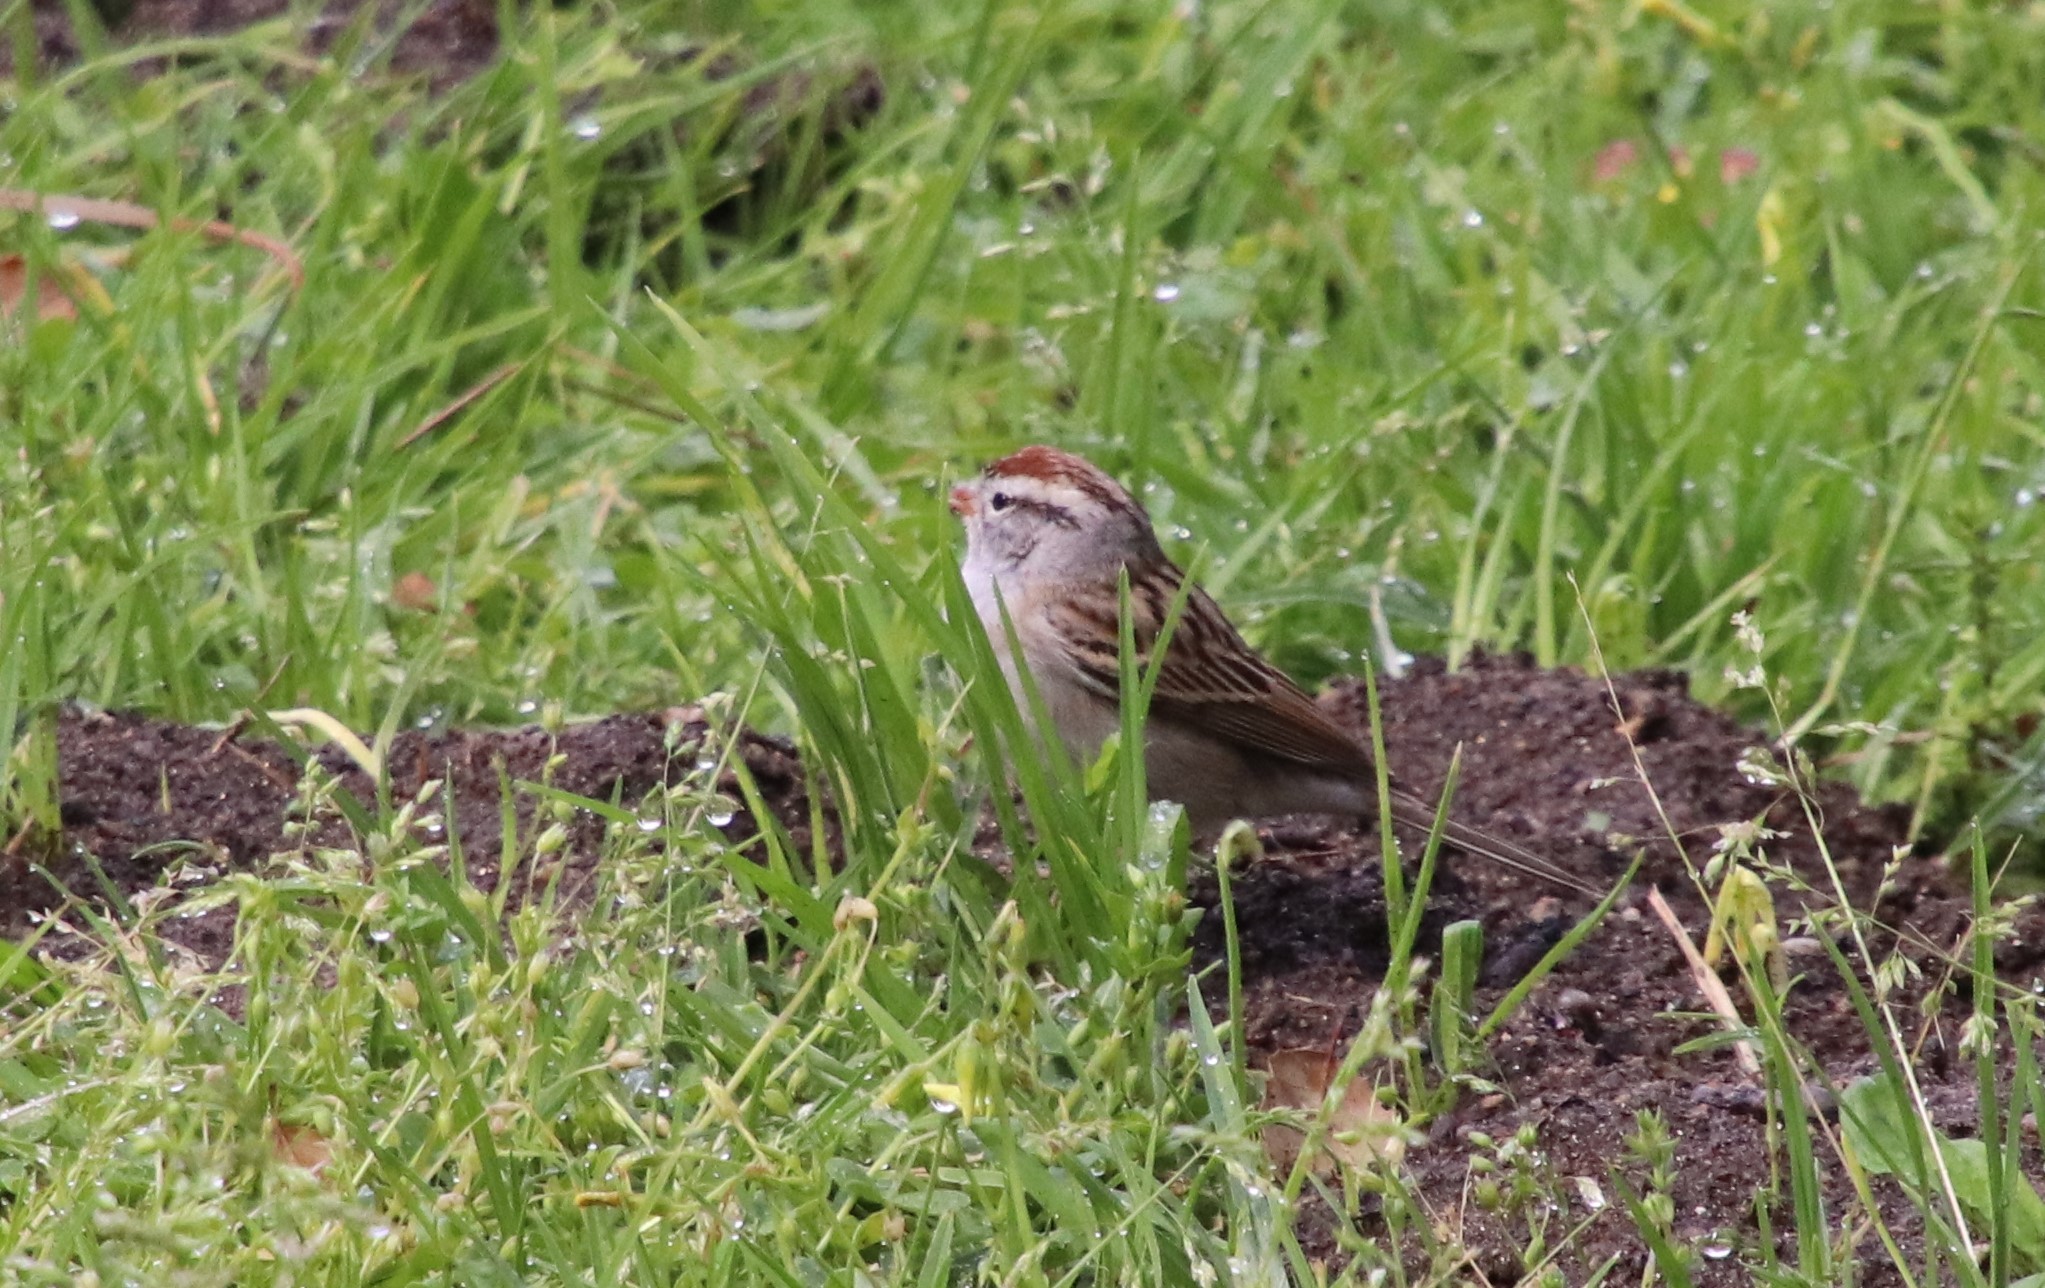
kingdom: Animalia
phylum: Chordata
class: Aves
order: Passeriformes
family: Passerellidae
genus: Spizella
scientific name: Spizella passerina
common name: Chipping sparrow
